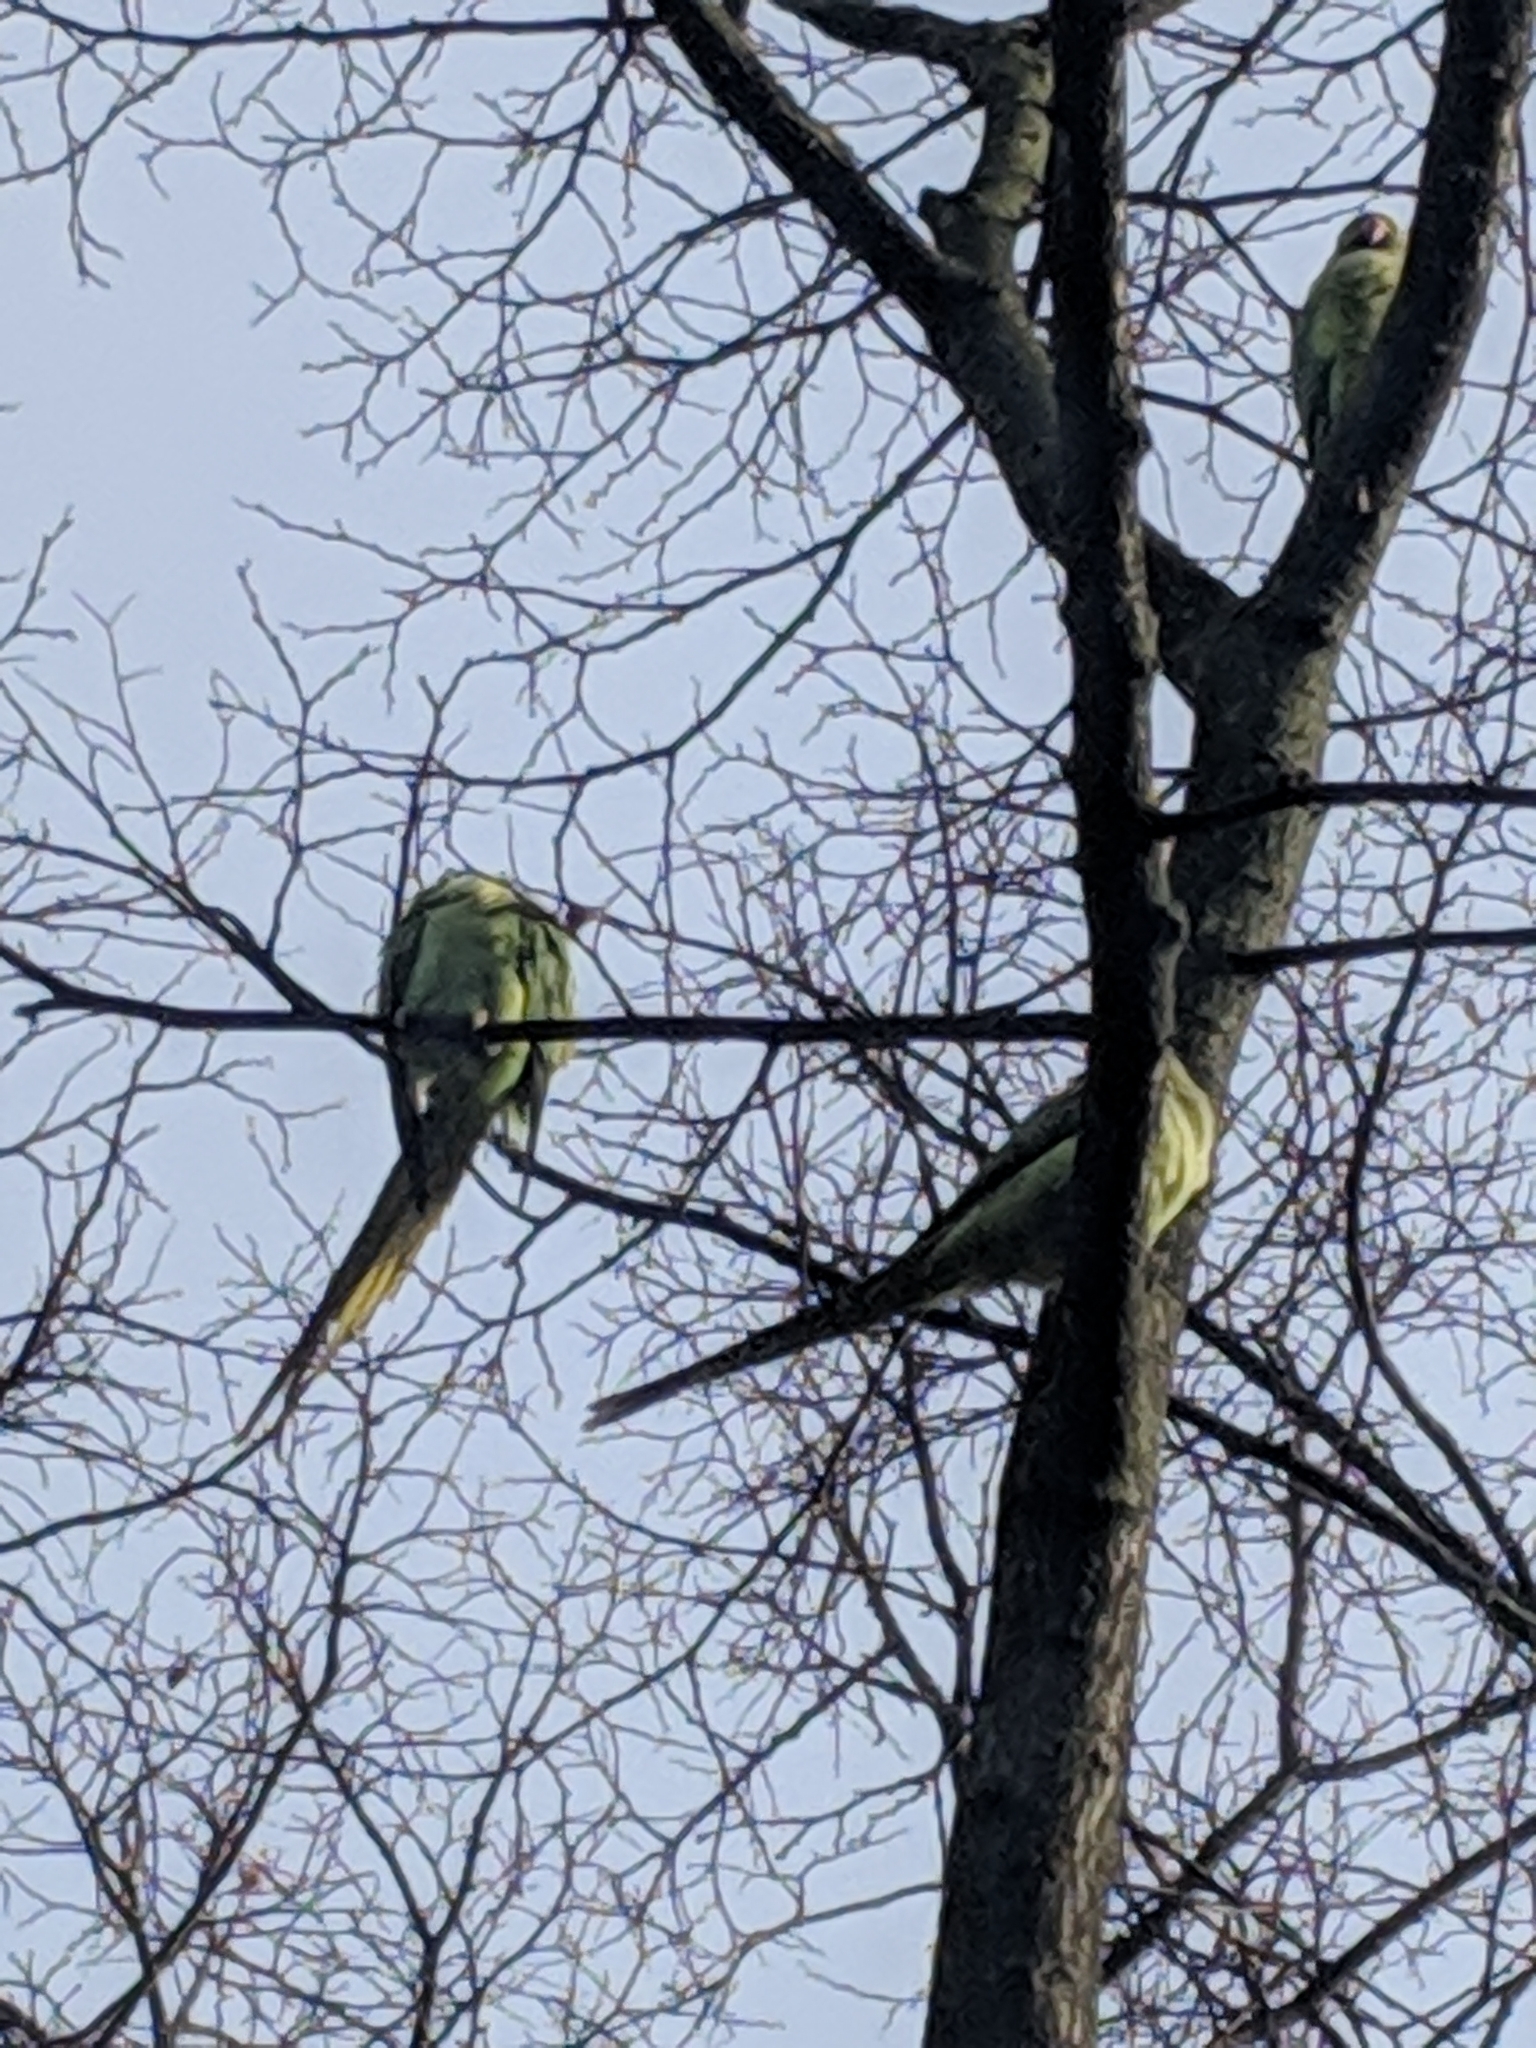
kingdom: Animalia
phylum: Chordata
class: Aves
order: Psittaciformes
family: Psittacidae
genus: Psittacula
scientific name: Psittacula krameri
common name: Rose-ringed parakeet
